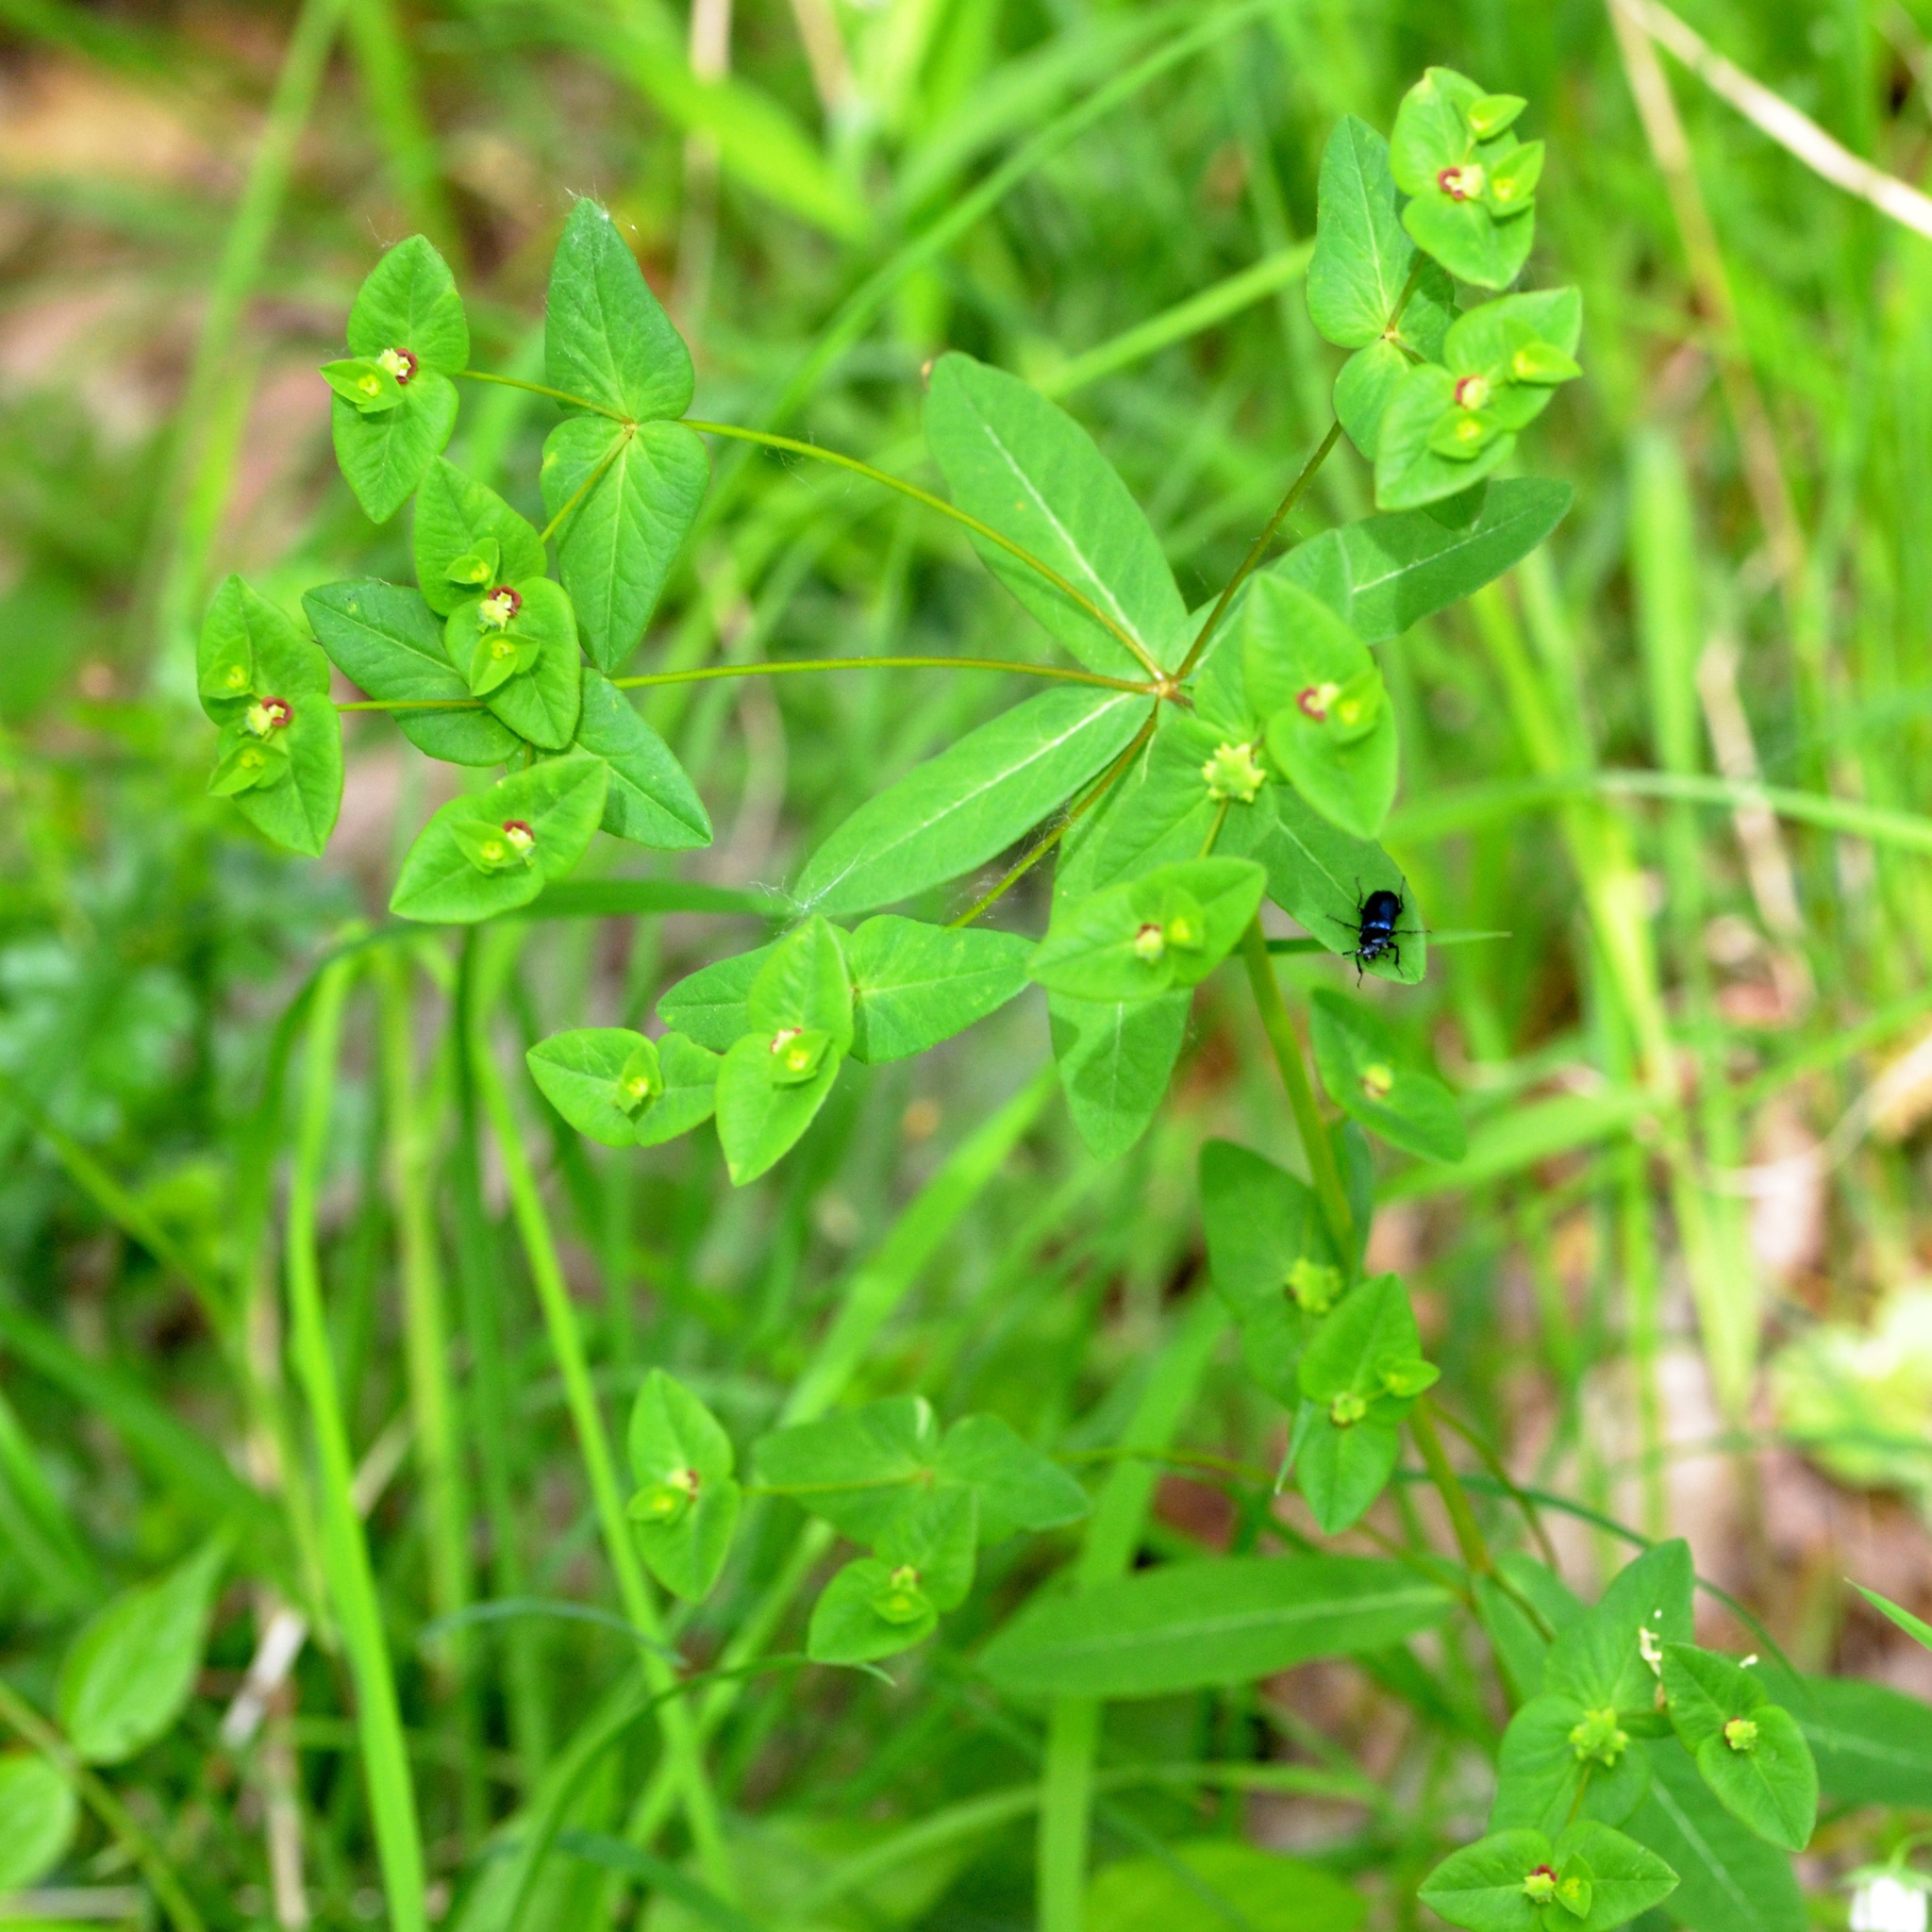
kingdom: Plantae
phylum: Tracheophyta
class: Magnoliopsida
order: Malpighiales
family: Euphorbiaceae
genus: Euphorbia
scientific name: Euphorbia dulcis
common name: Sweet spurge
